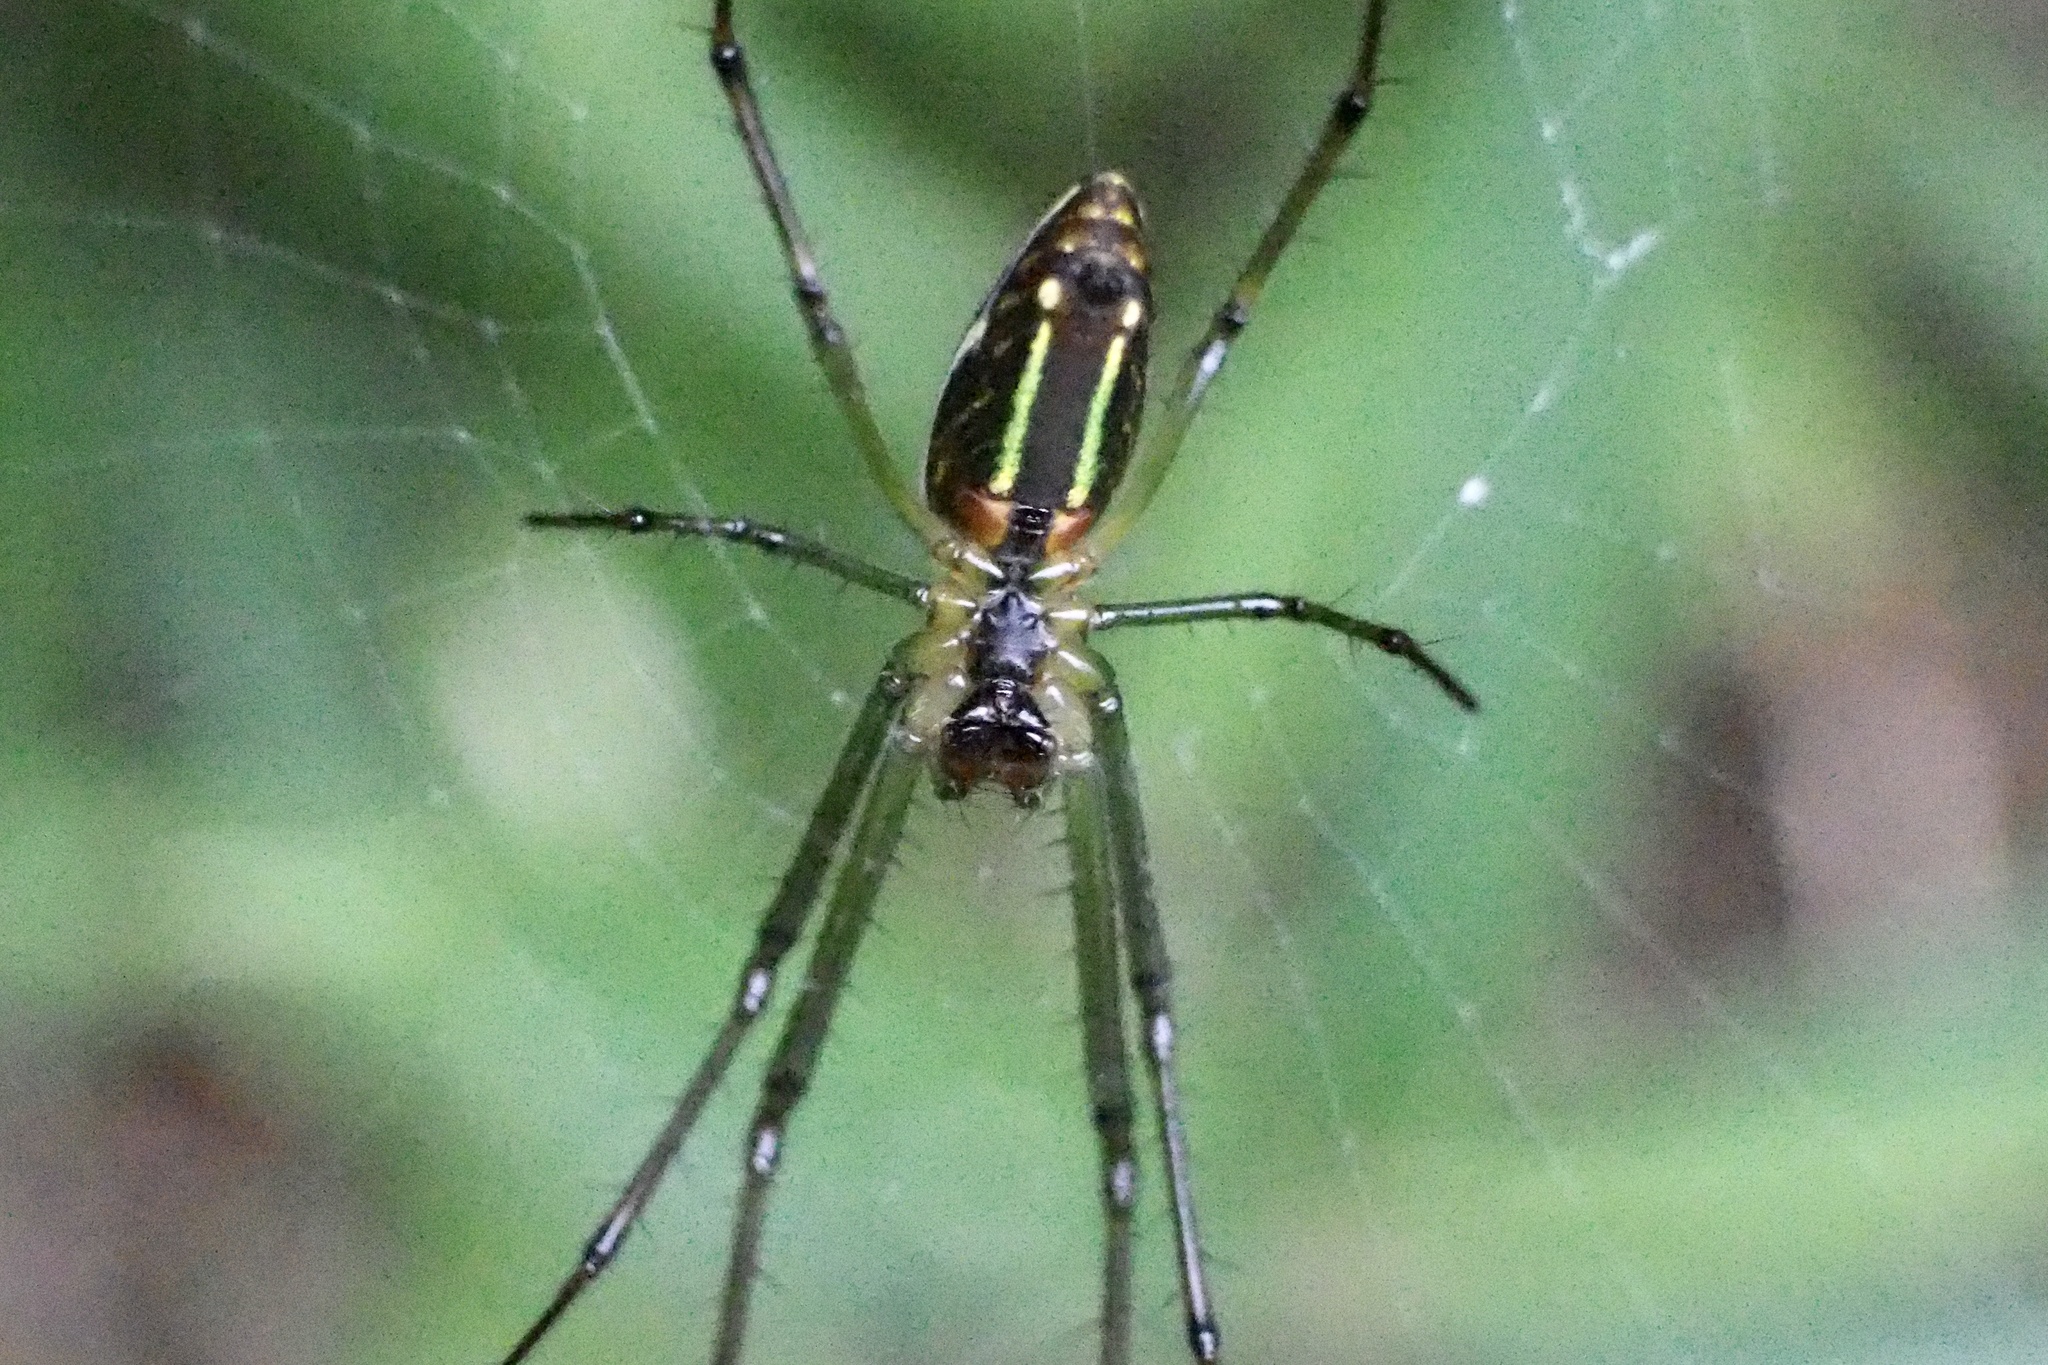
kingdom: Animalia
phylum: Arthropoda
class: Arachnida
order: Araneae
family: Tetragnathidae
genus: Leucauge
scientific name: Leucauge celebesiana
